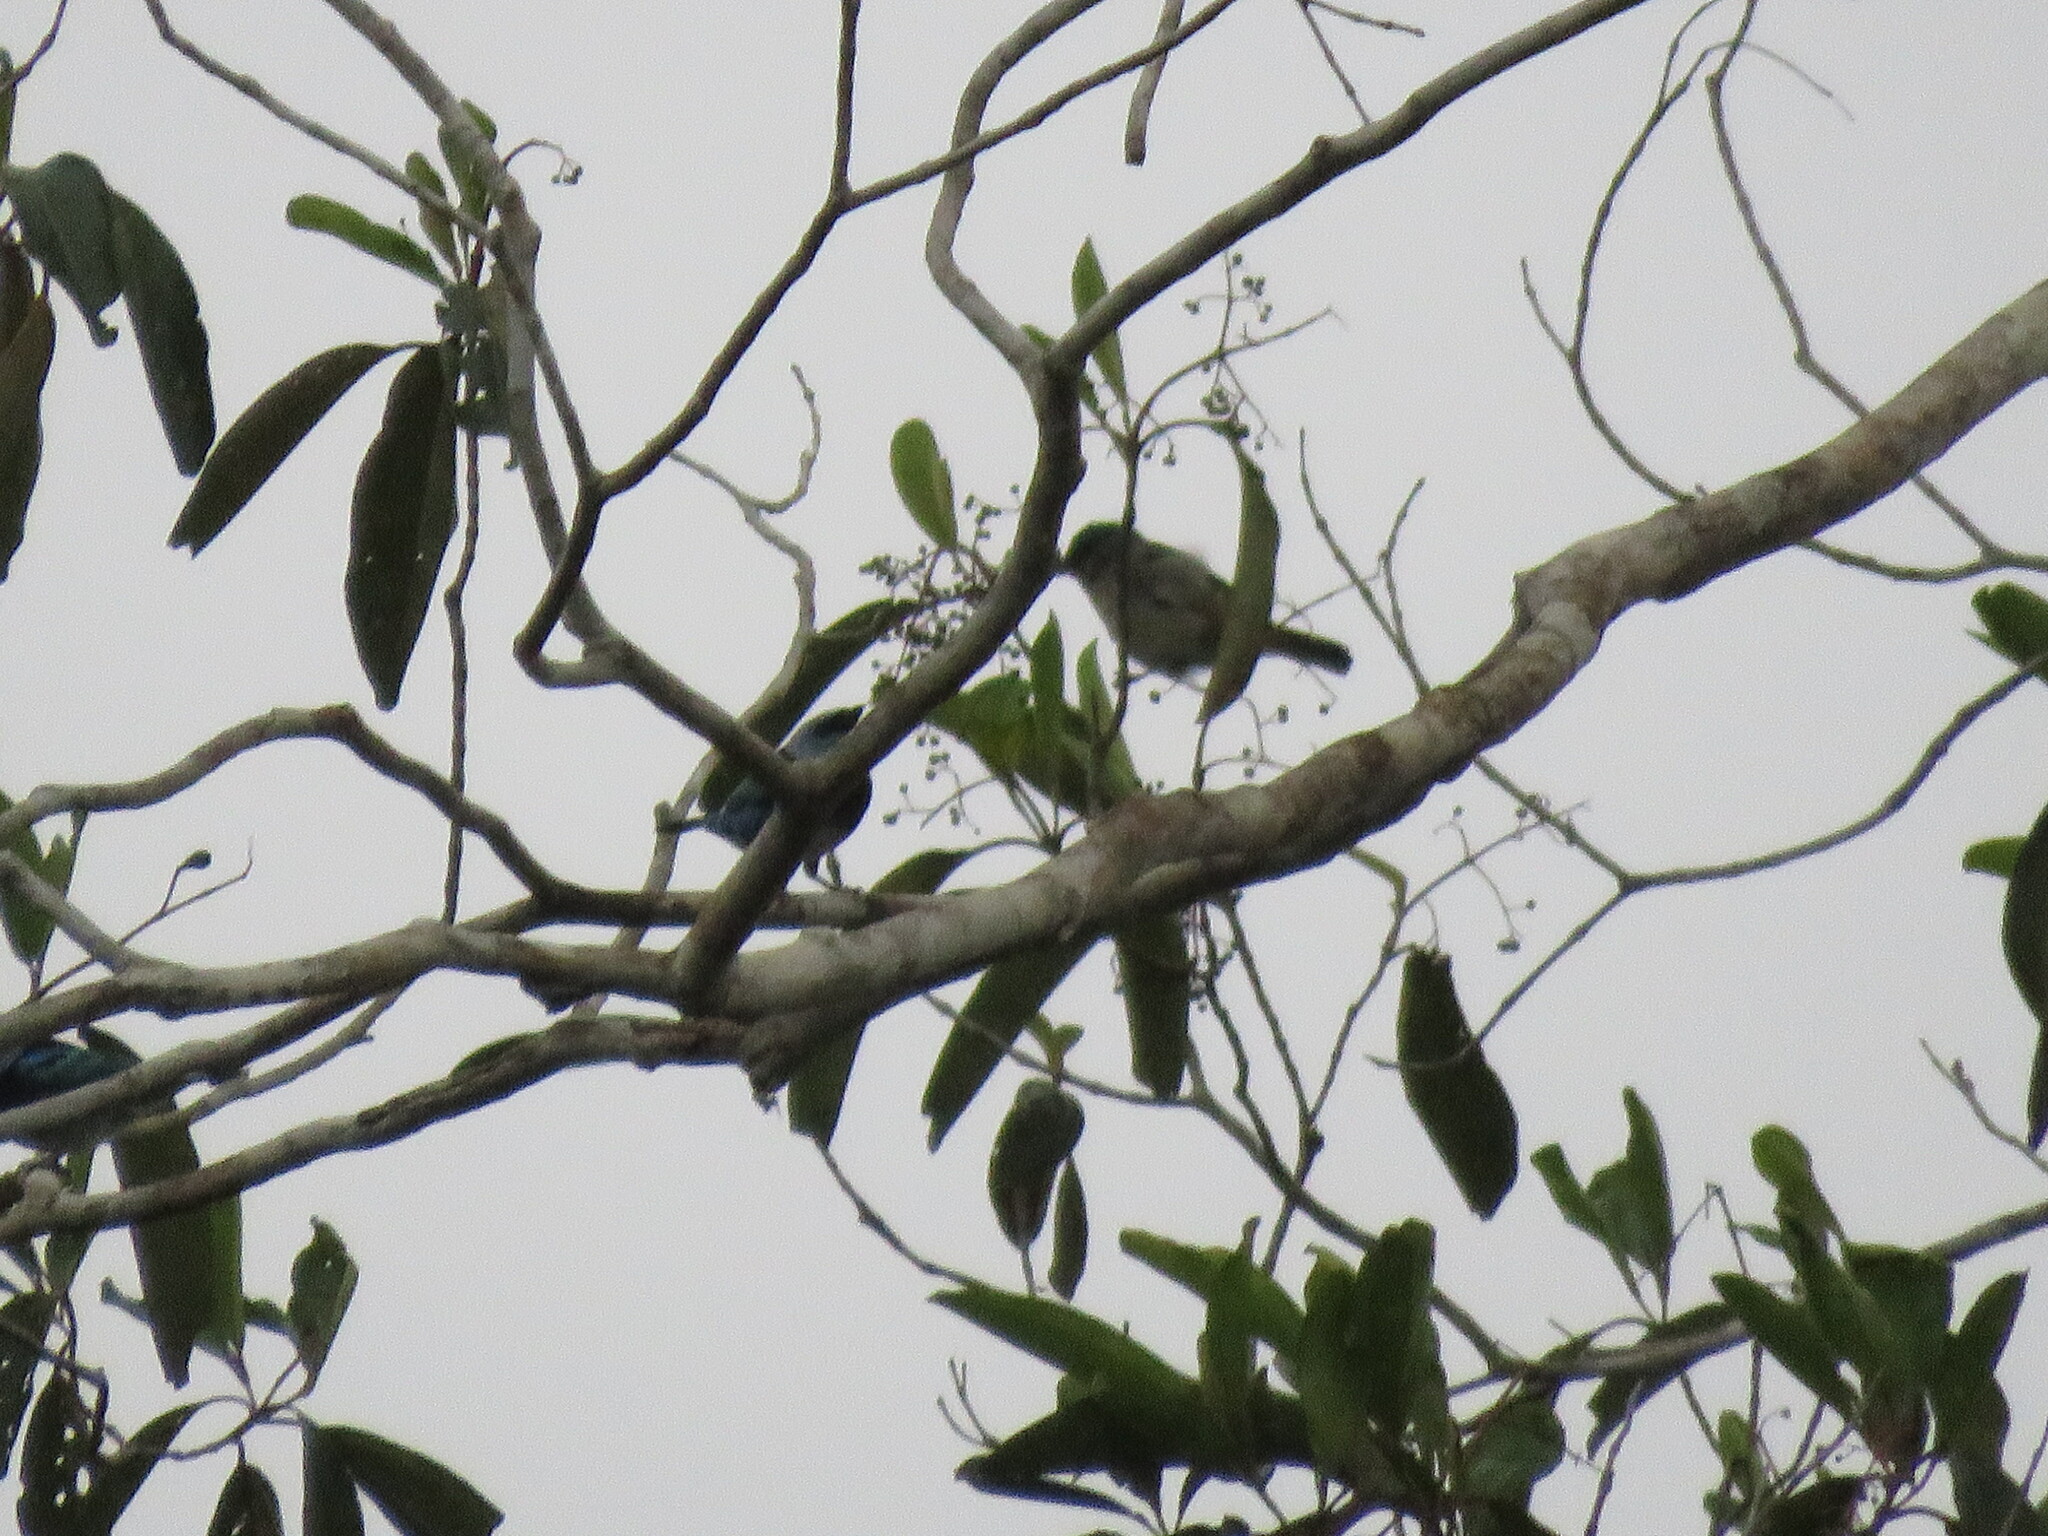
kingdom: Animalia
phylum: Chordata
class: Aves
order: Passeriformes
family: Thraupidae
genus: Stilpnia
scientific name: Stilpnia nigrocincta
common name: Masked tanager
